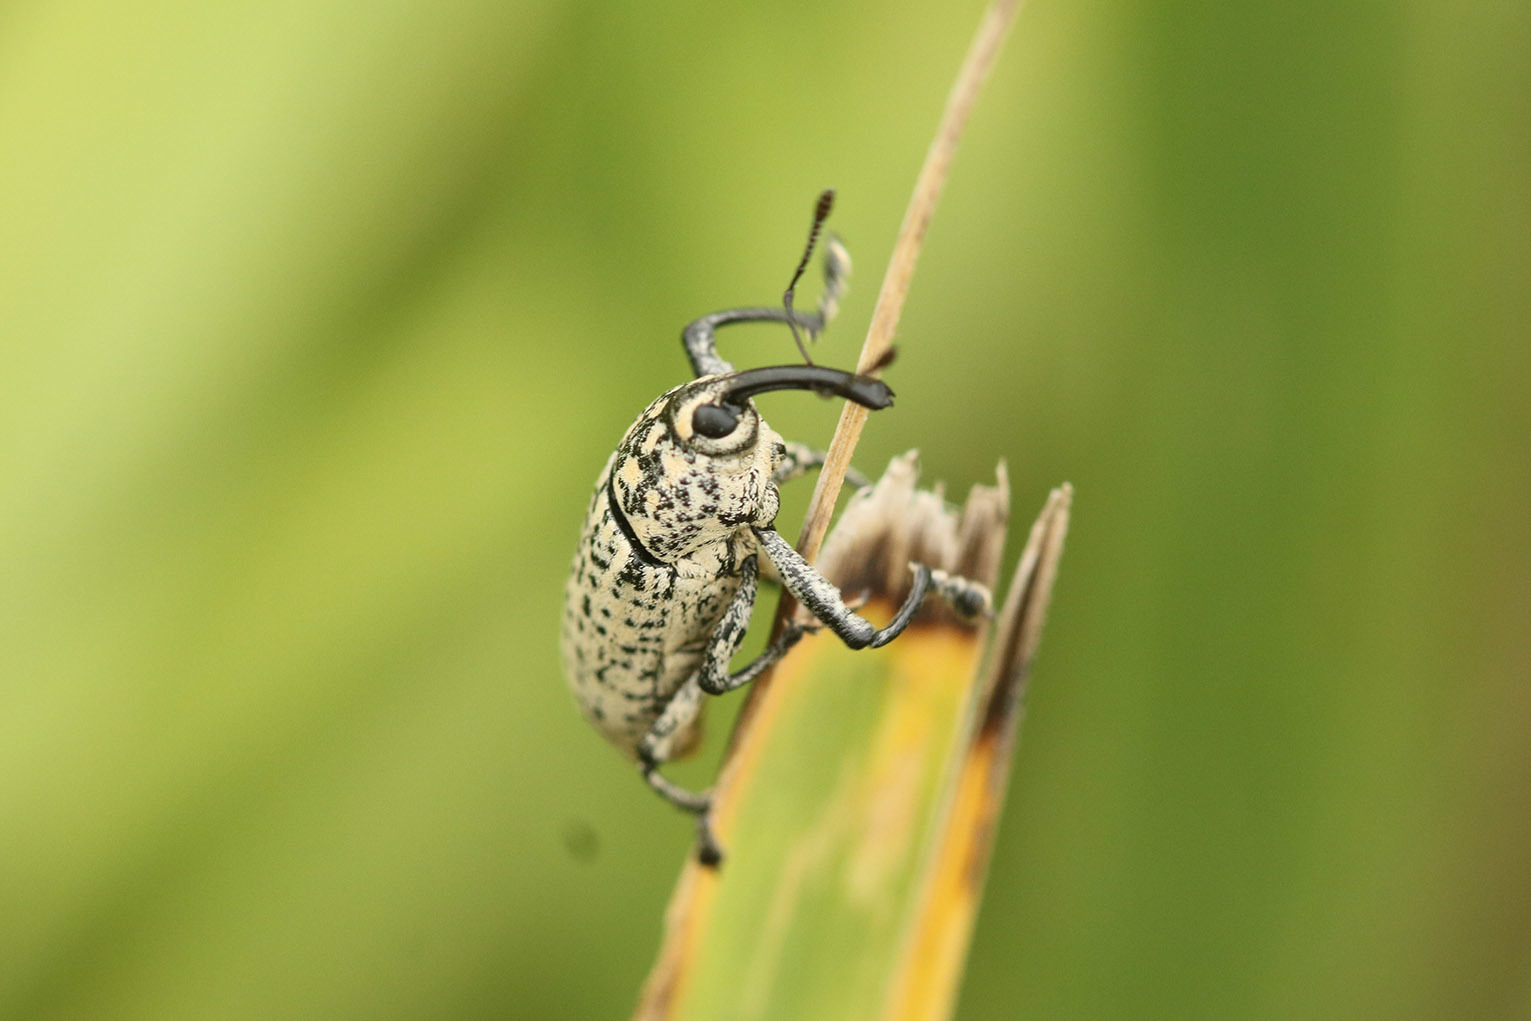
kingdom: Animalia
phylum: Arthropoda
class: Insecta
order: Coleoptera
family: Curculionidae
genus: Acrotomopus
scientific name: Acrotomopus microspilotus
